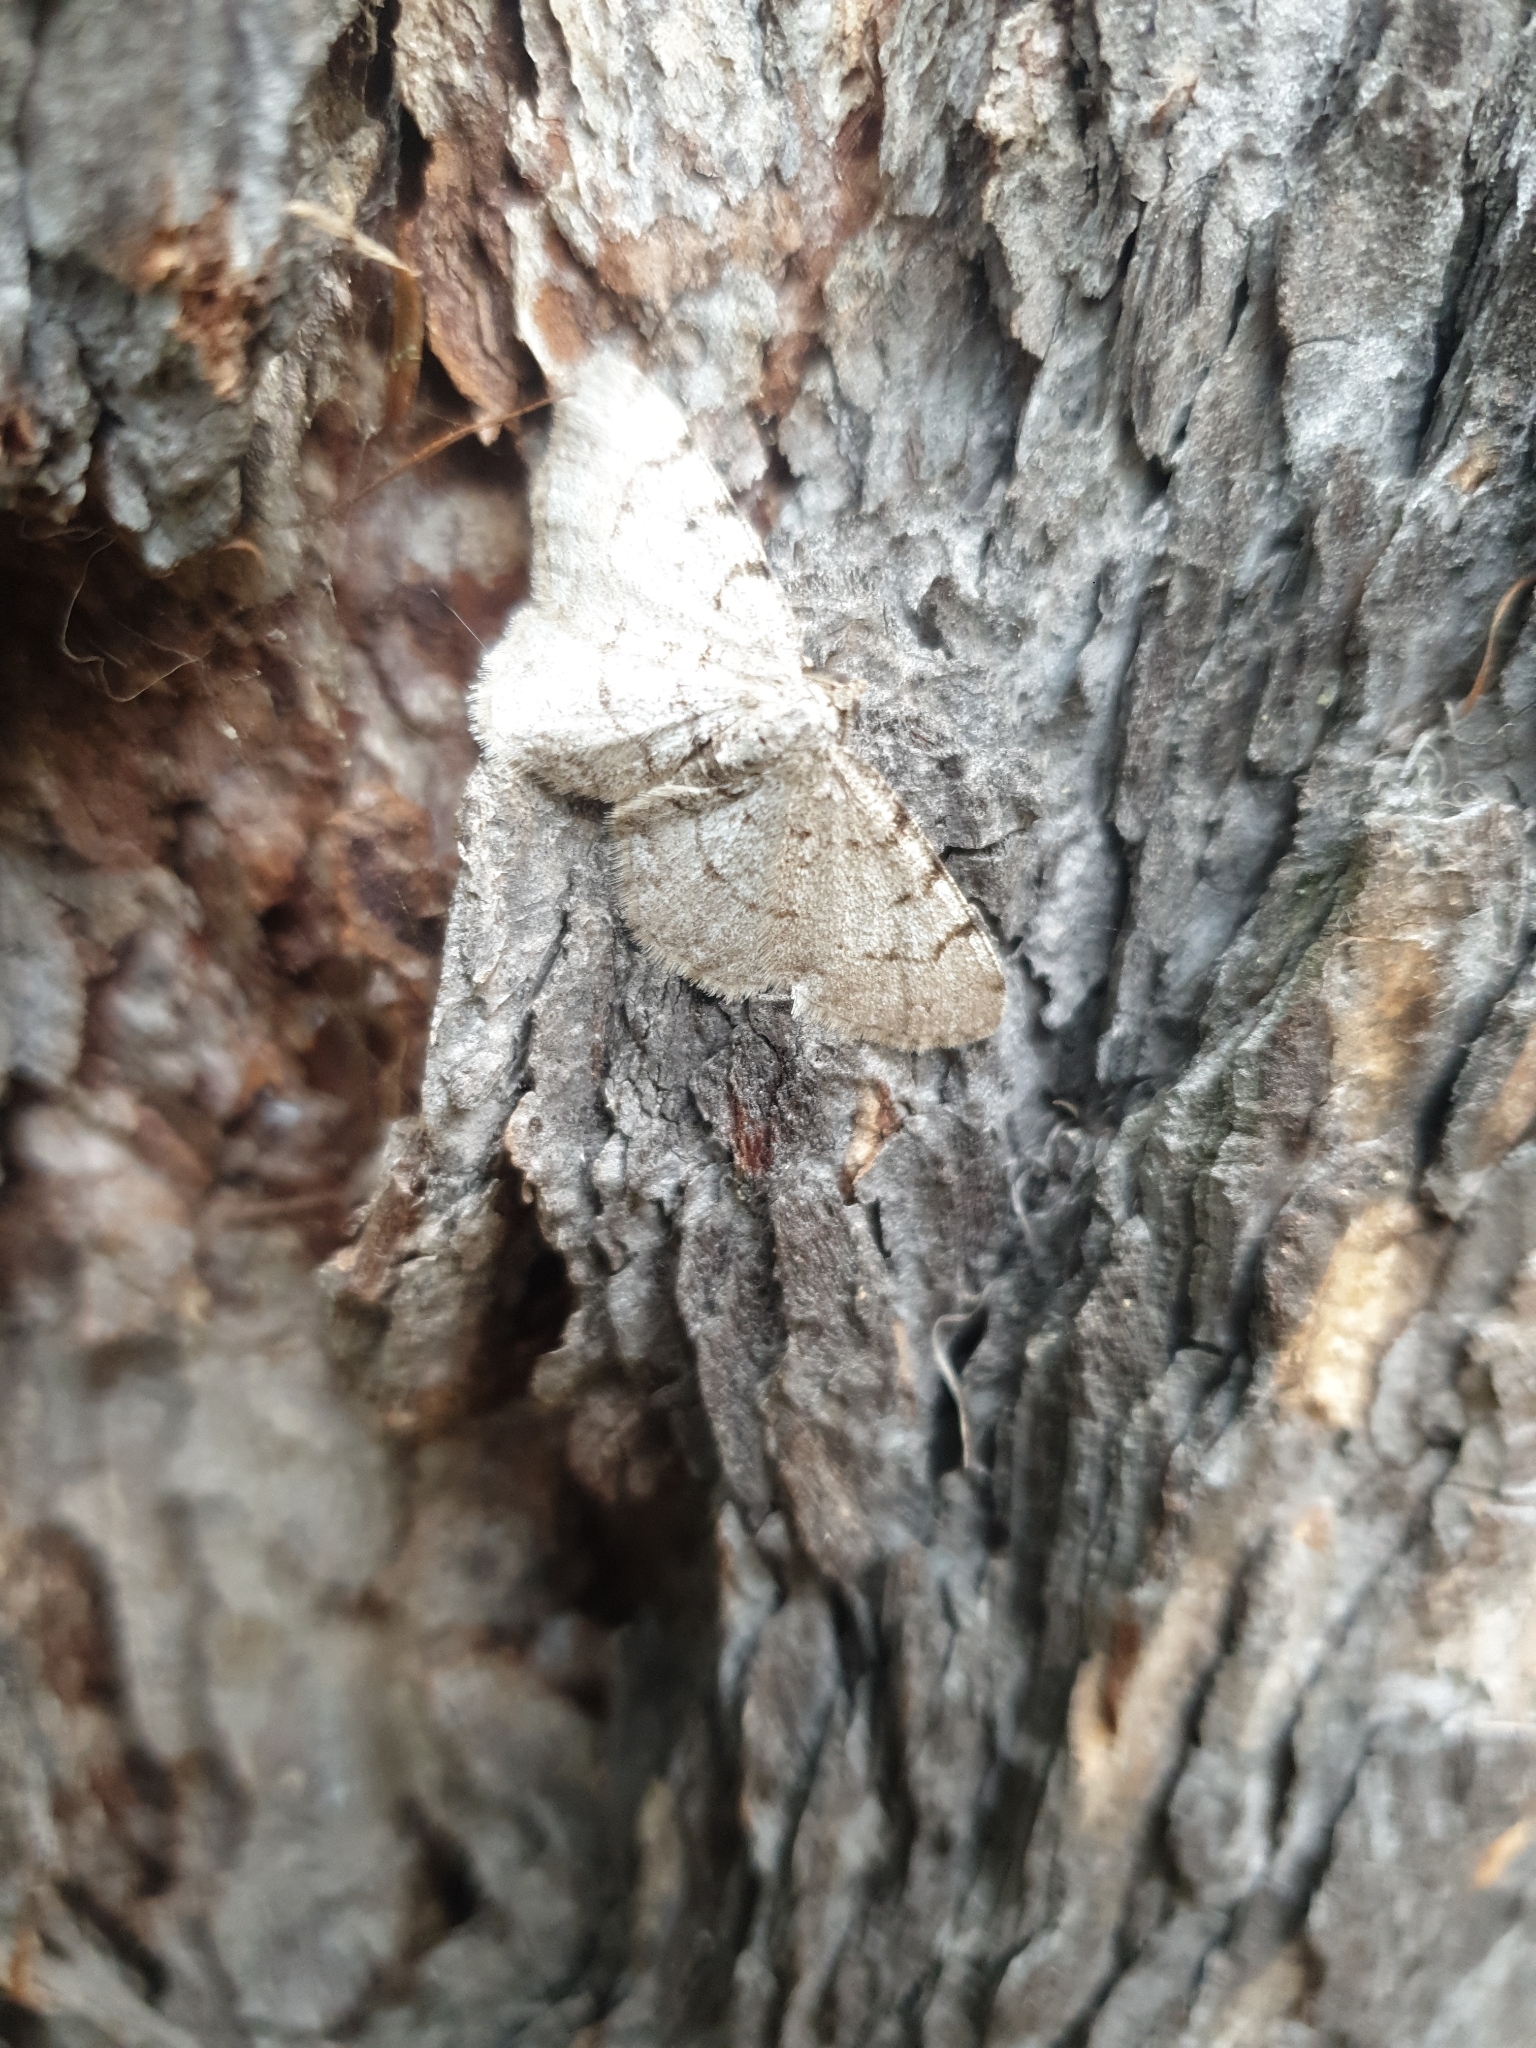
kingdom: Animalia
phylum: Arthropoda
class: Insecta
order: Lepidoptera
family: Geometridae
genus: Aethalura
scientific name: Aethalura punctulata
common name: Grey birch
